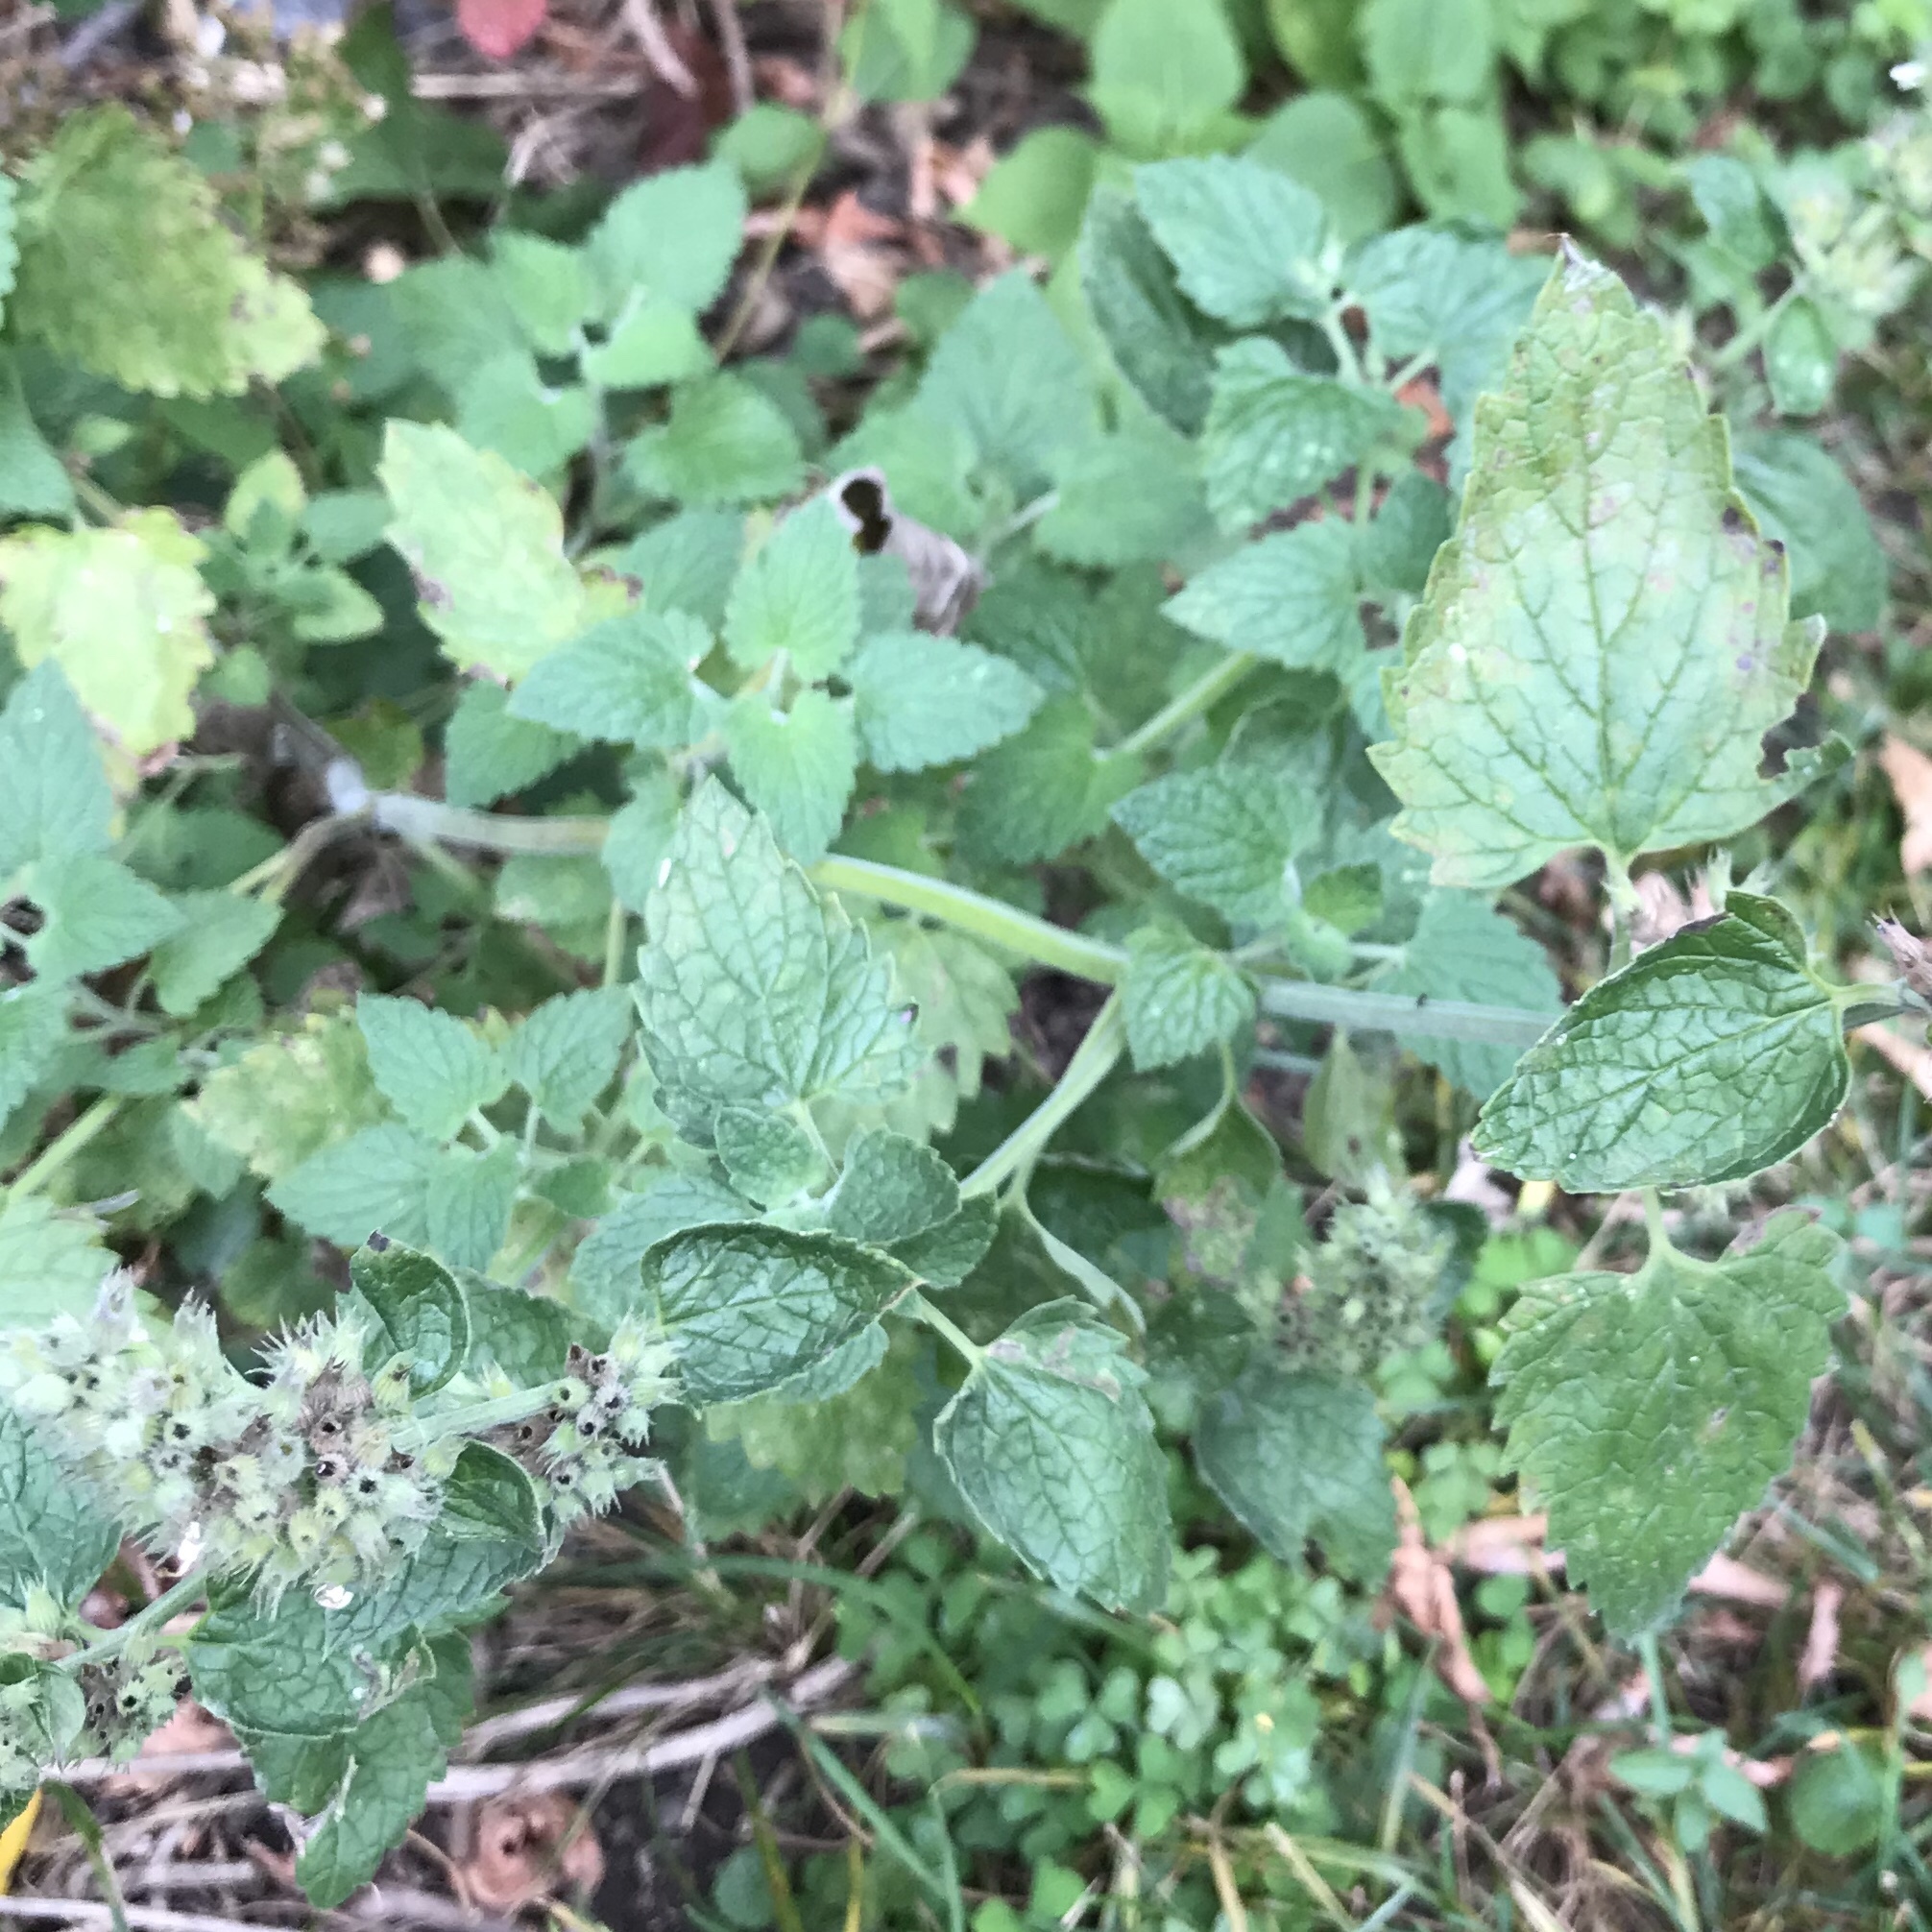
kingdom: Plantae
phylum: Tracheophyta
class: Magnoliopsida
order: Lamiales
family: Lamiaceae
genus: Nepeta
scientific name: Nepeta cataria
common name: Catnip
